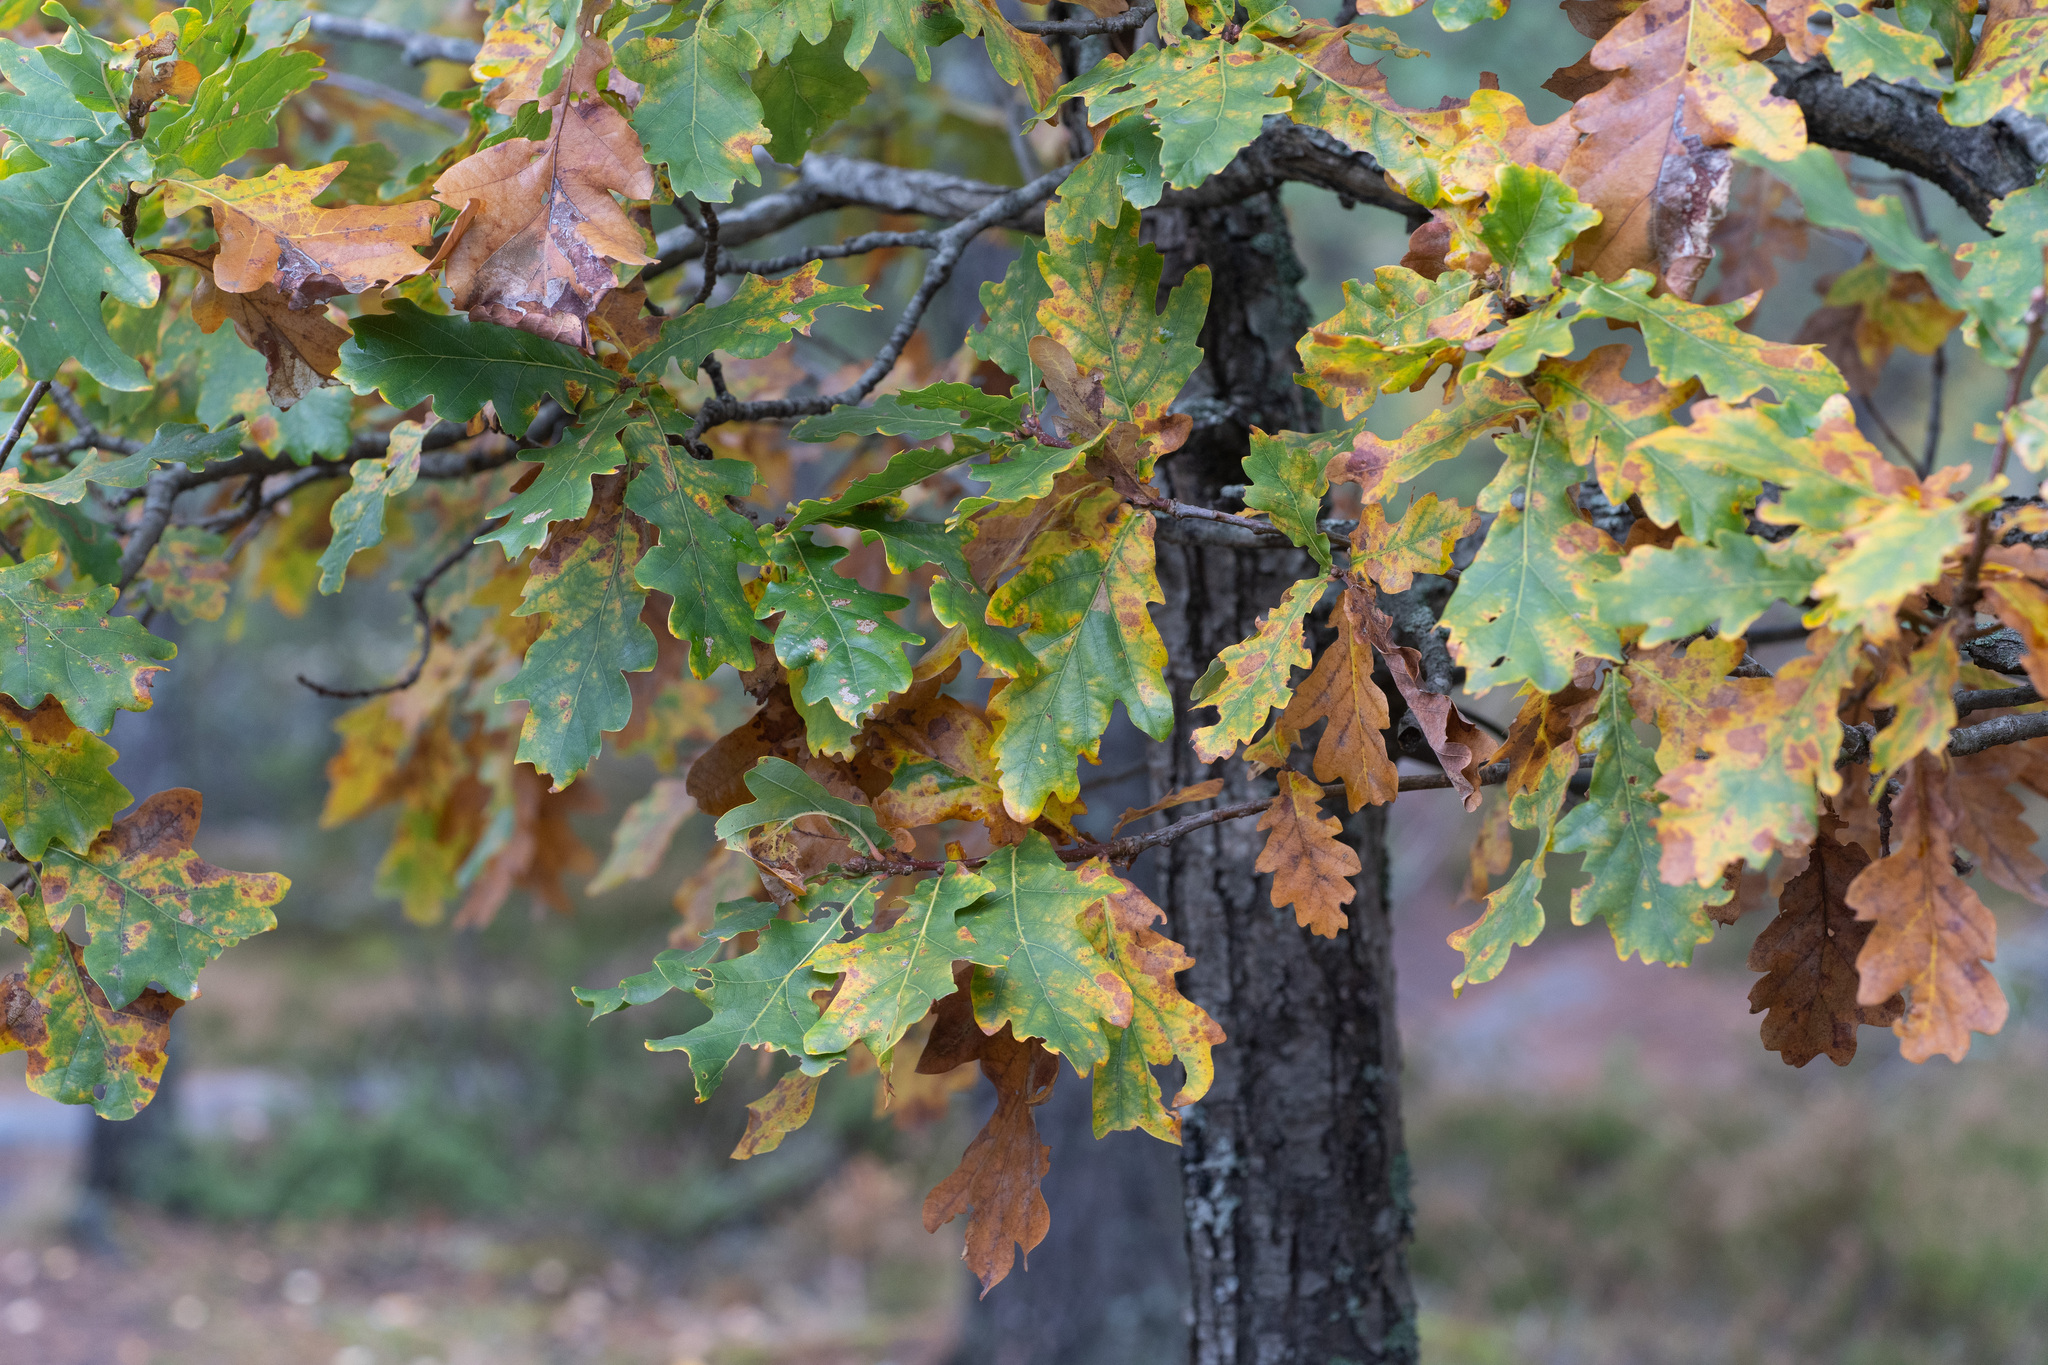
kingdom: Plantae
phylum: Tracheophyta
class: Magnoliopsida
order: Fagales
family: Fagaceae
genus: Quercus
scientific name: Quercus robur
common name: Pedunculate oak
